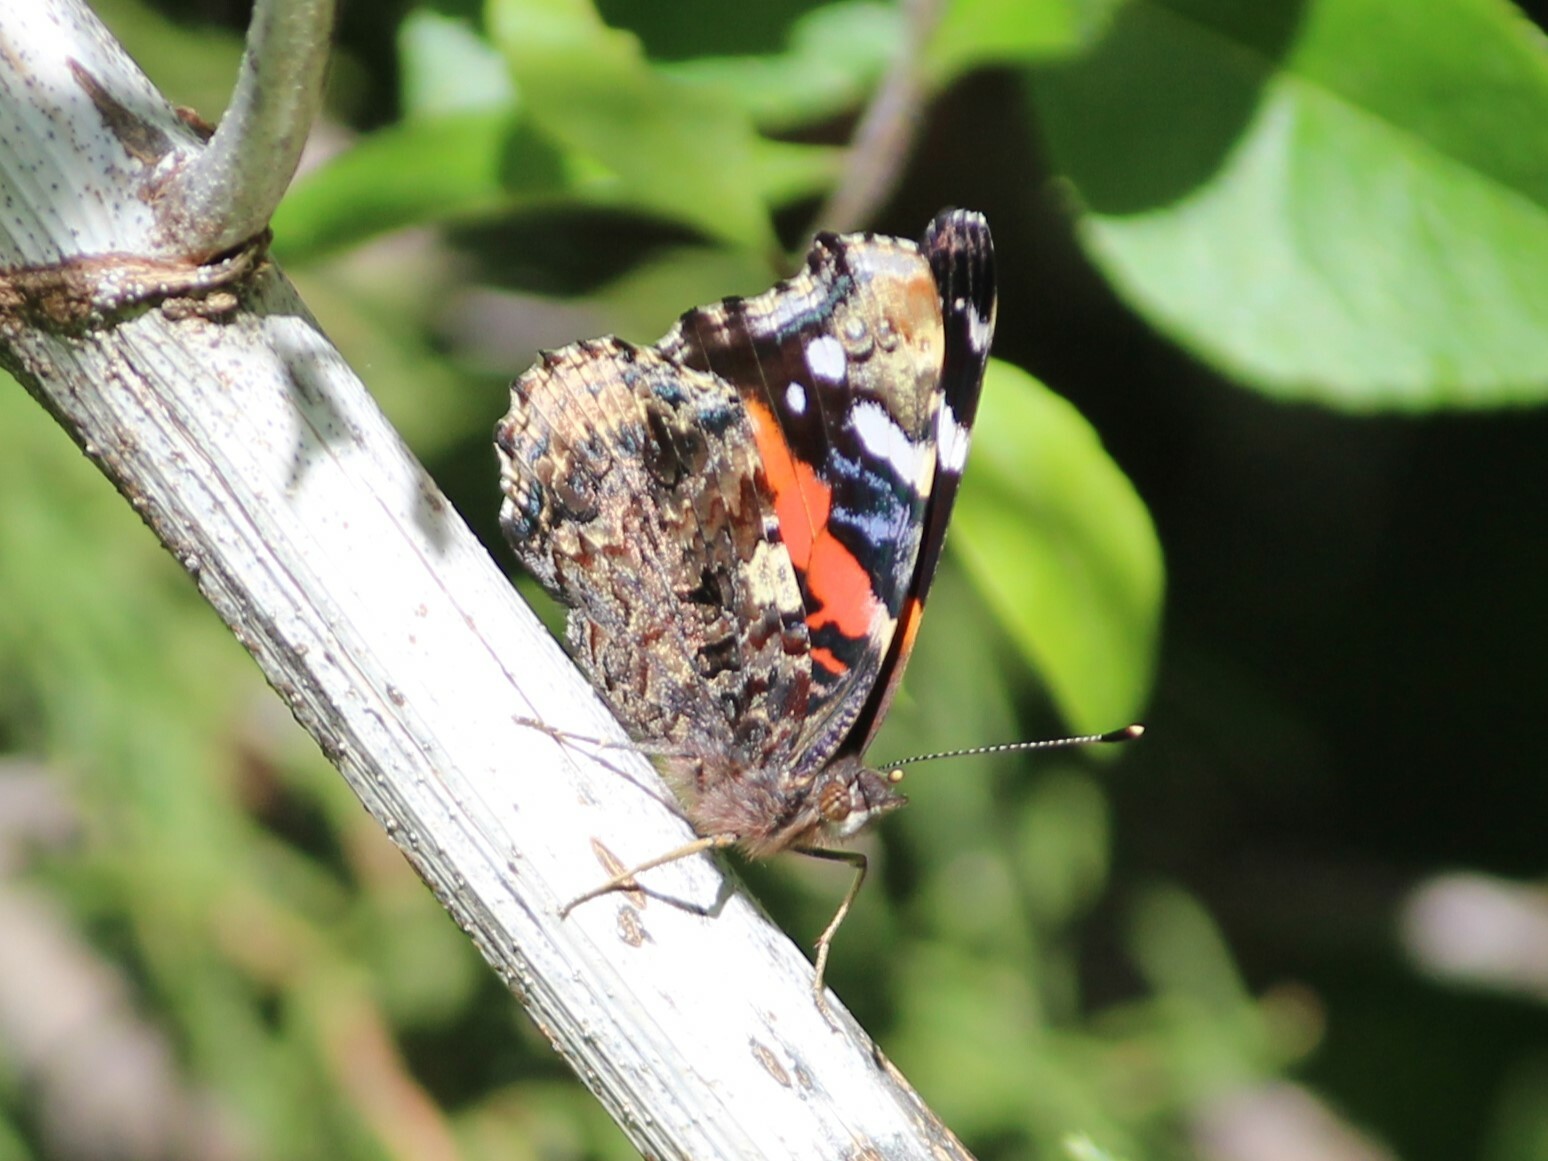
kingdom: Animalia
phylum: Arthropoda
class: Insecta
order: Lepidoptera
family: Nymphalidae
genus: Vanessa
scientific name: Vanessa atalanta
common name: Red admiral
